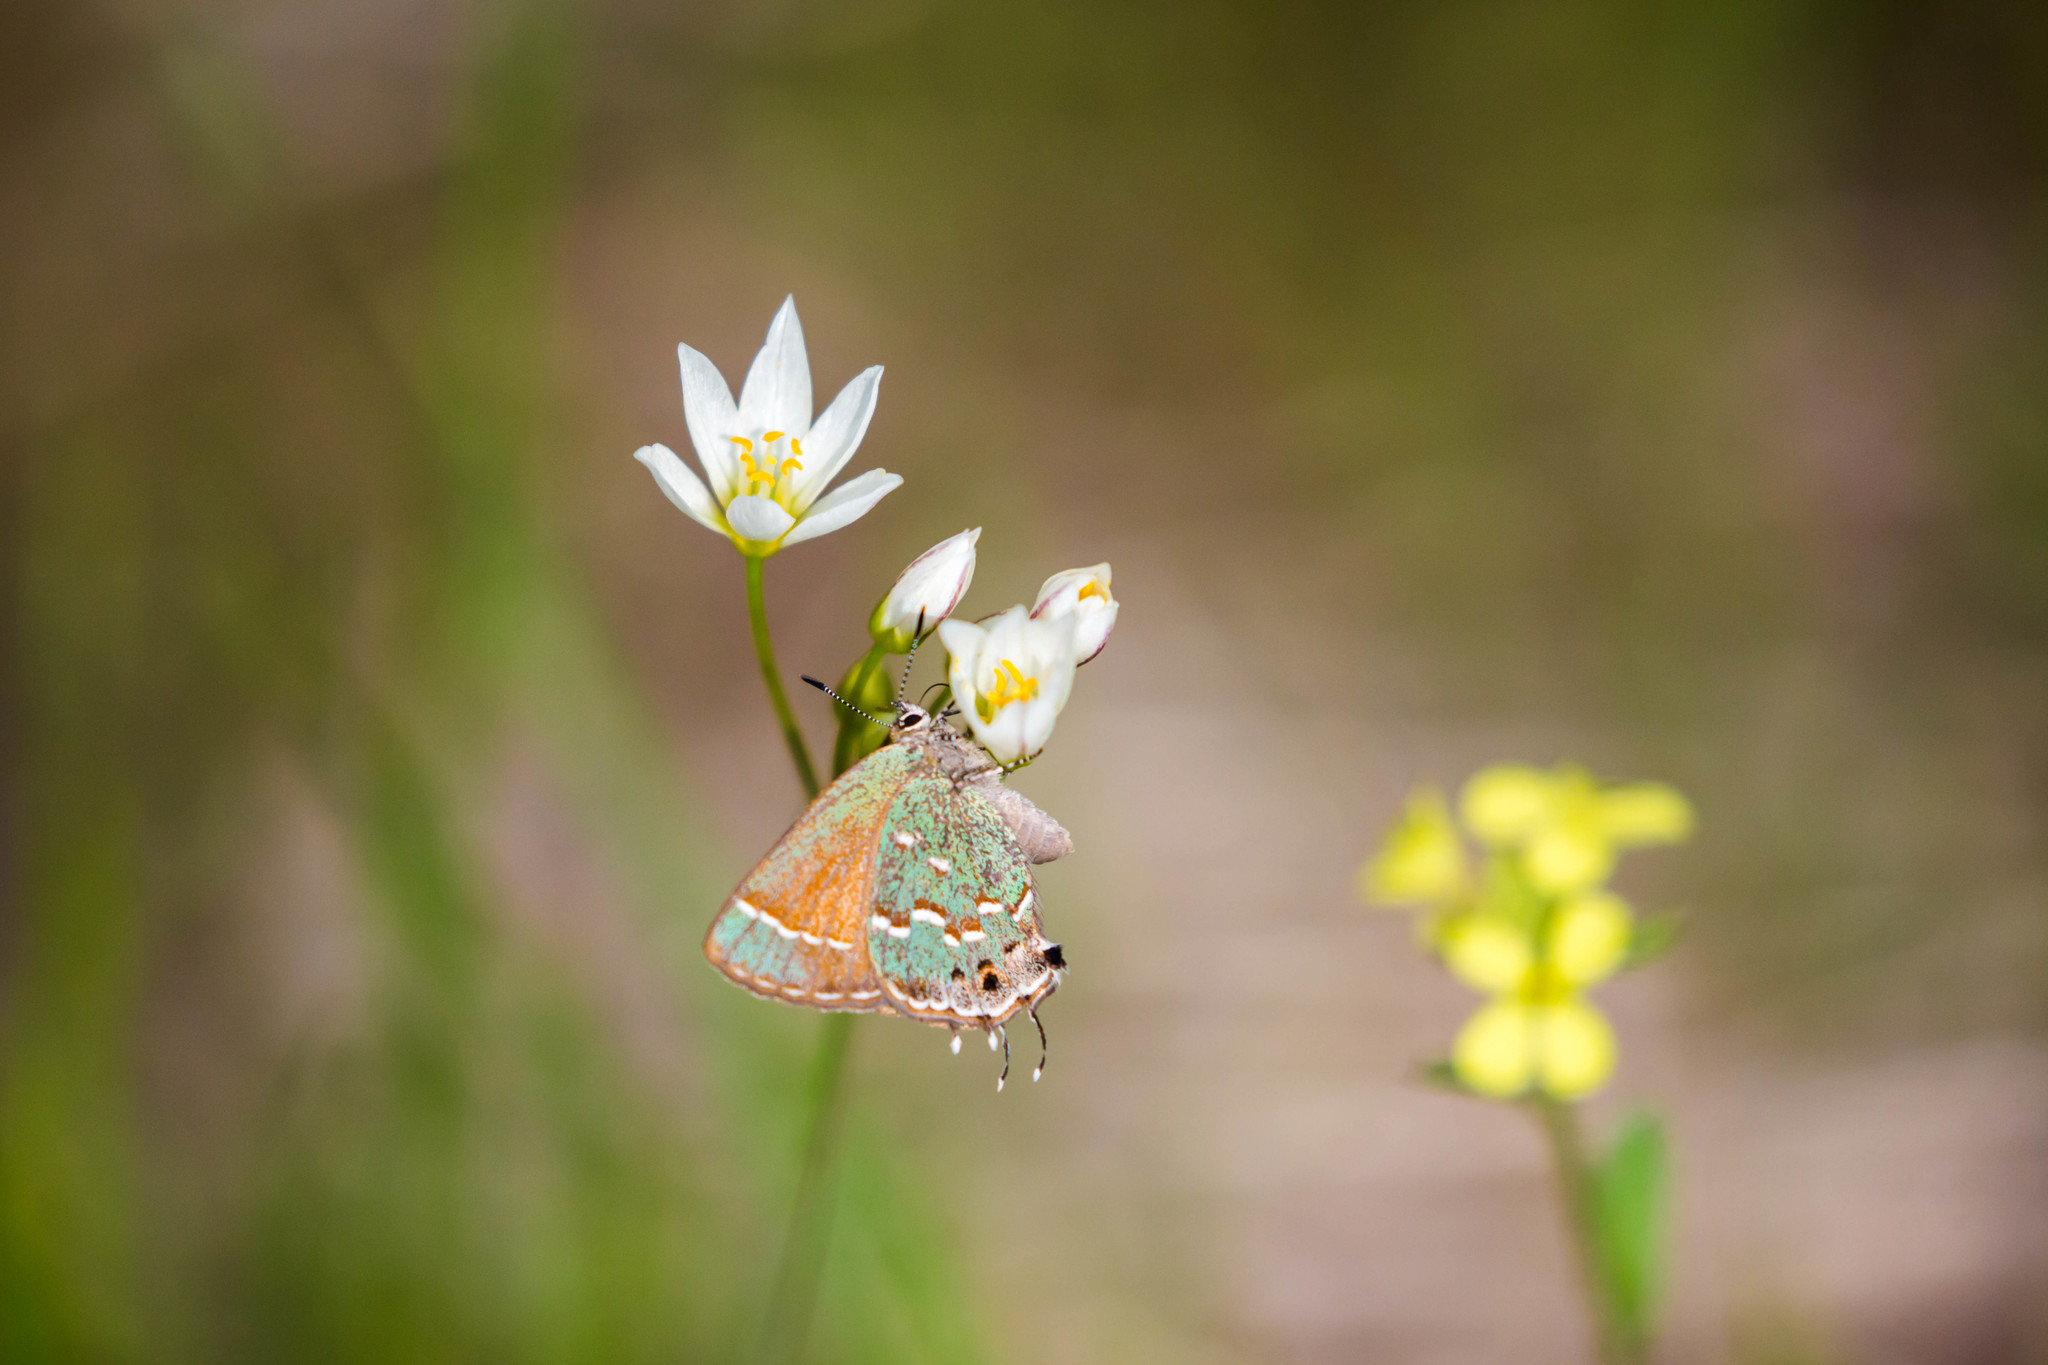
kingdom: Animalia
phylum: Arthropoda
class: Insecta
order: Lepidoptera
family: Lycaenidae
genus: Mitoura
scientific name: Mitoura gryneus
